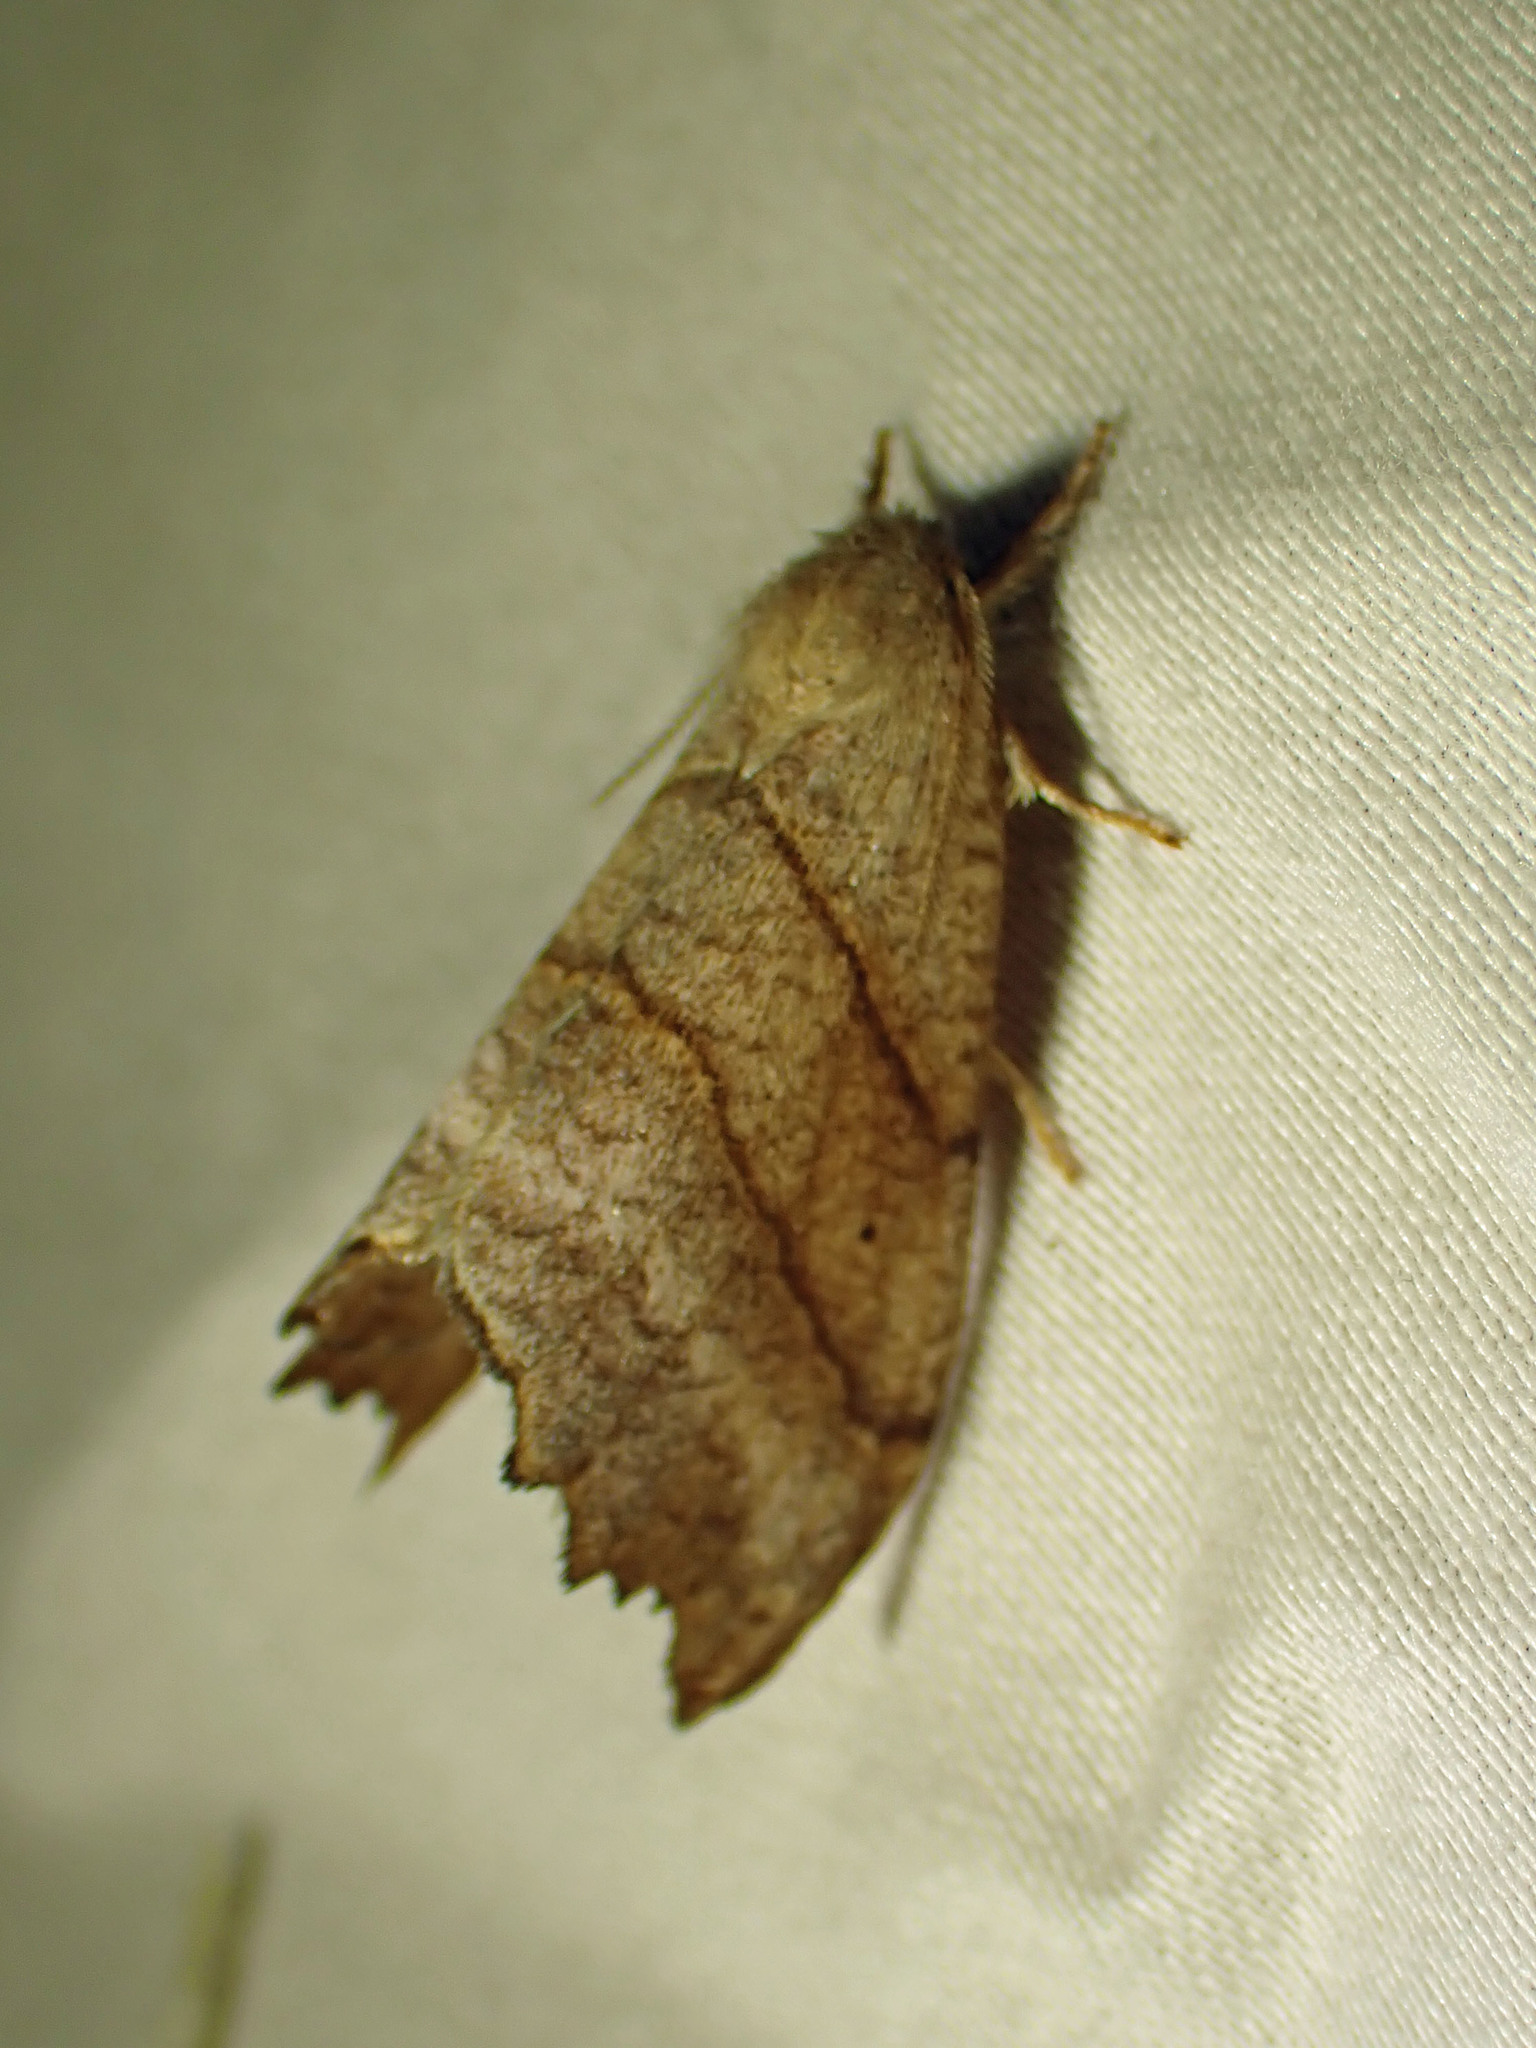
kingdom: Animalia
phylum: Arthropoda
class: Insecta
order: Lepidoptera
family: Drepanidae
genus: Falcaria
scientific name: Falcaria bilineata
